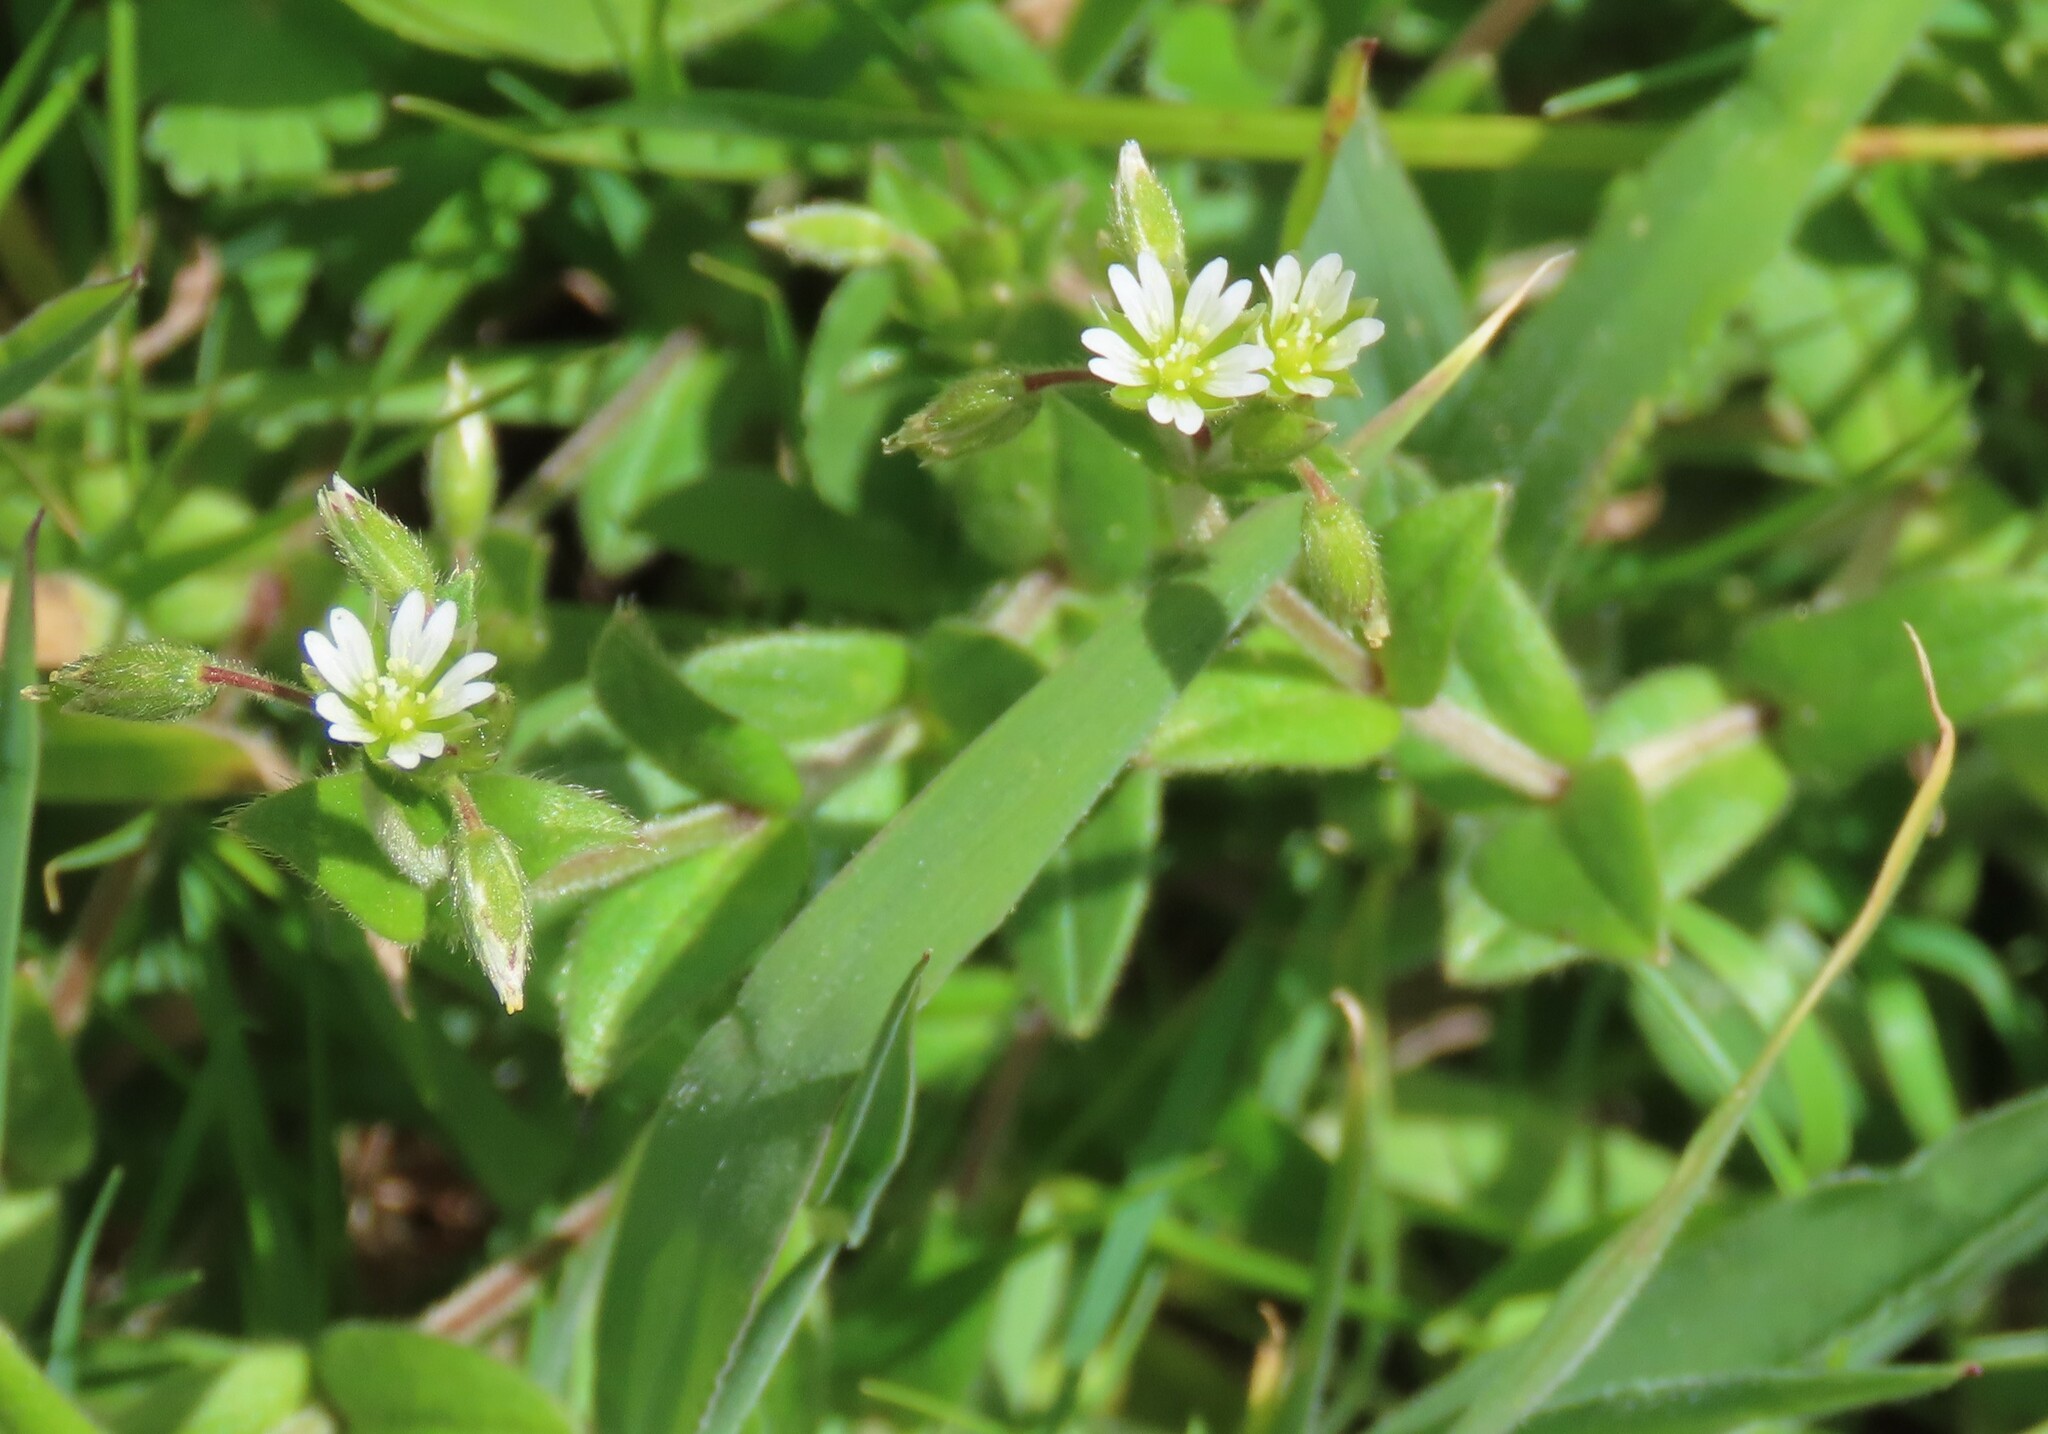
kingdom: Plantae
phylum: Tracheophyta
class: Magnoliopsida
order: Caryophyllales
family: Caryophyllaceae
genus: Cerastium
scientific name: Cerastium fontanum
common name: Common mouse-ear
